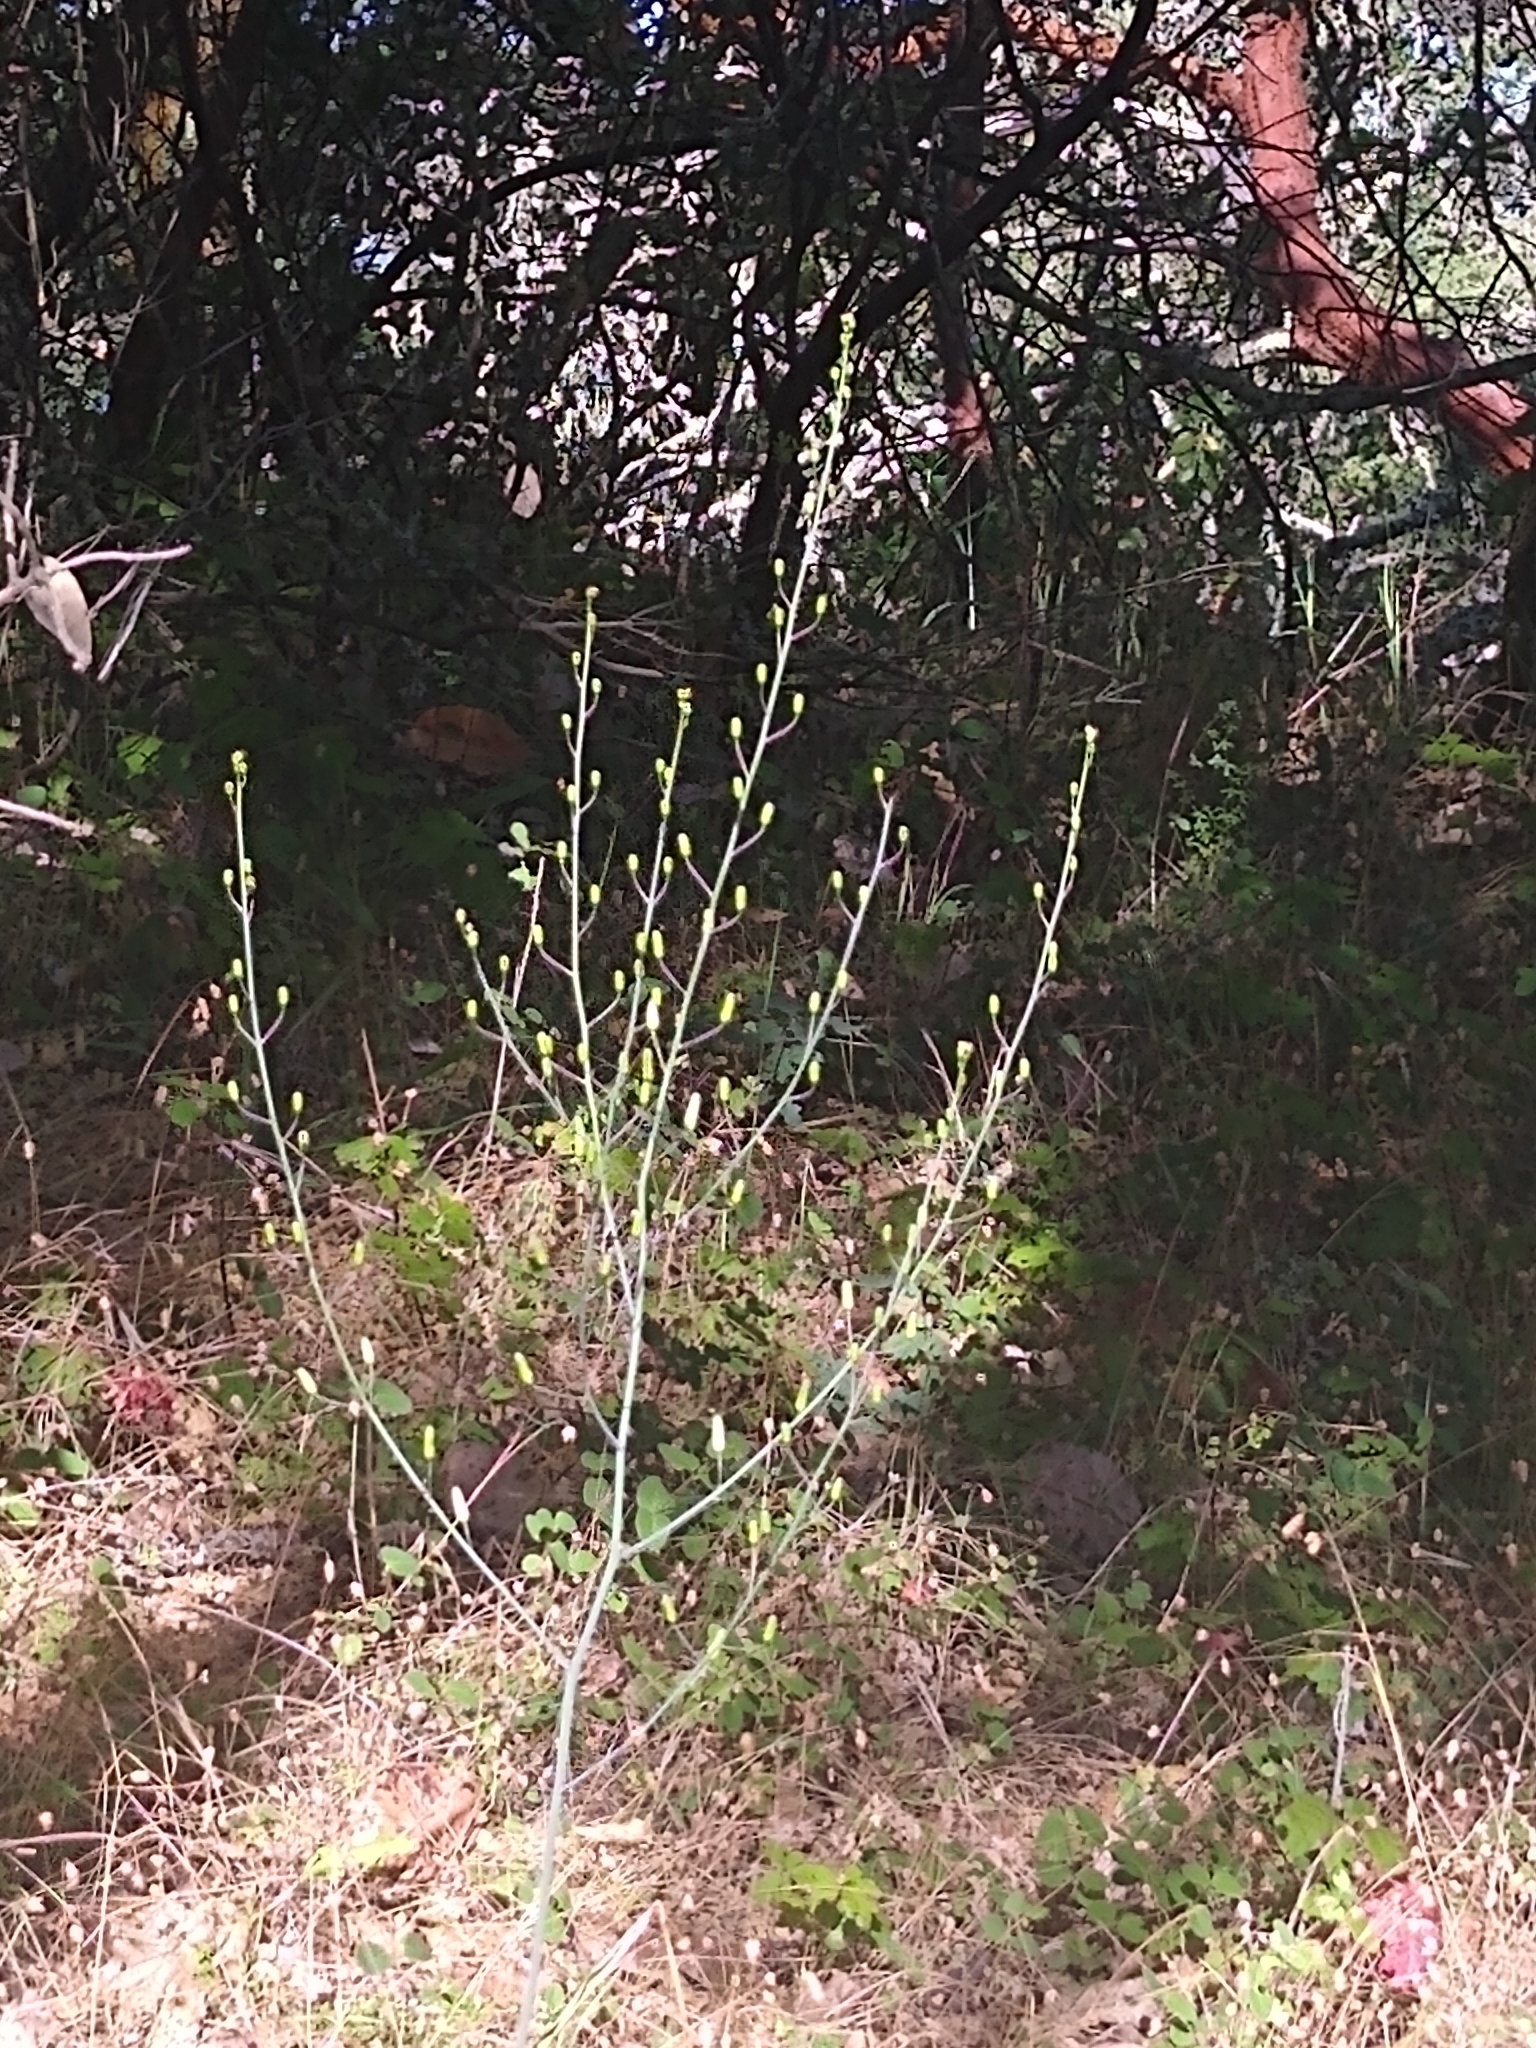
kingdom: Plantae
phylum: Tracheophyta
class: Liliopsida
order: Asparagales
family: Asparagaceae
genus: Chlorogalum
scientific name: Chlorogalum pomeridianum
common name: Amole
